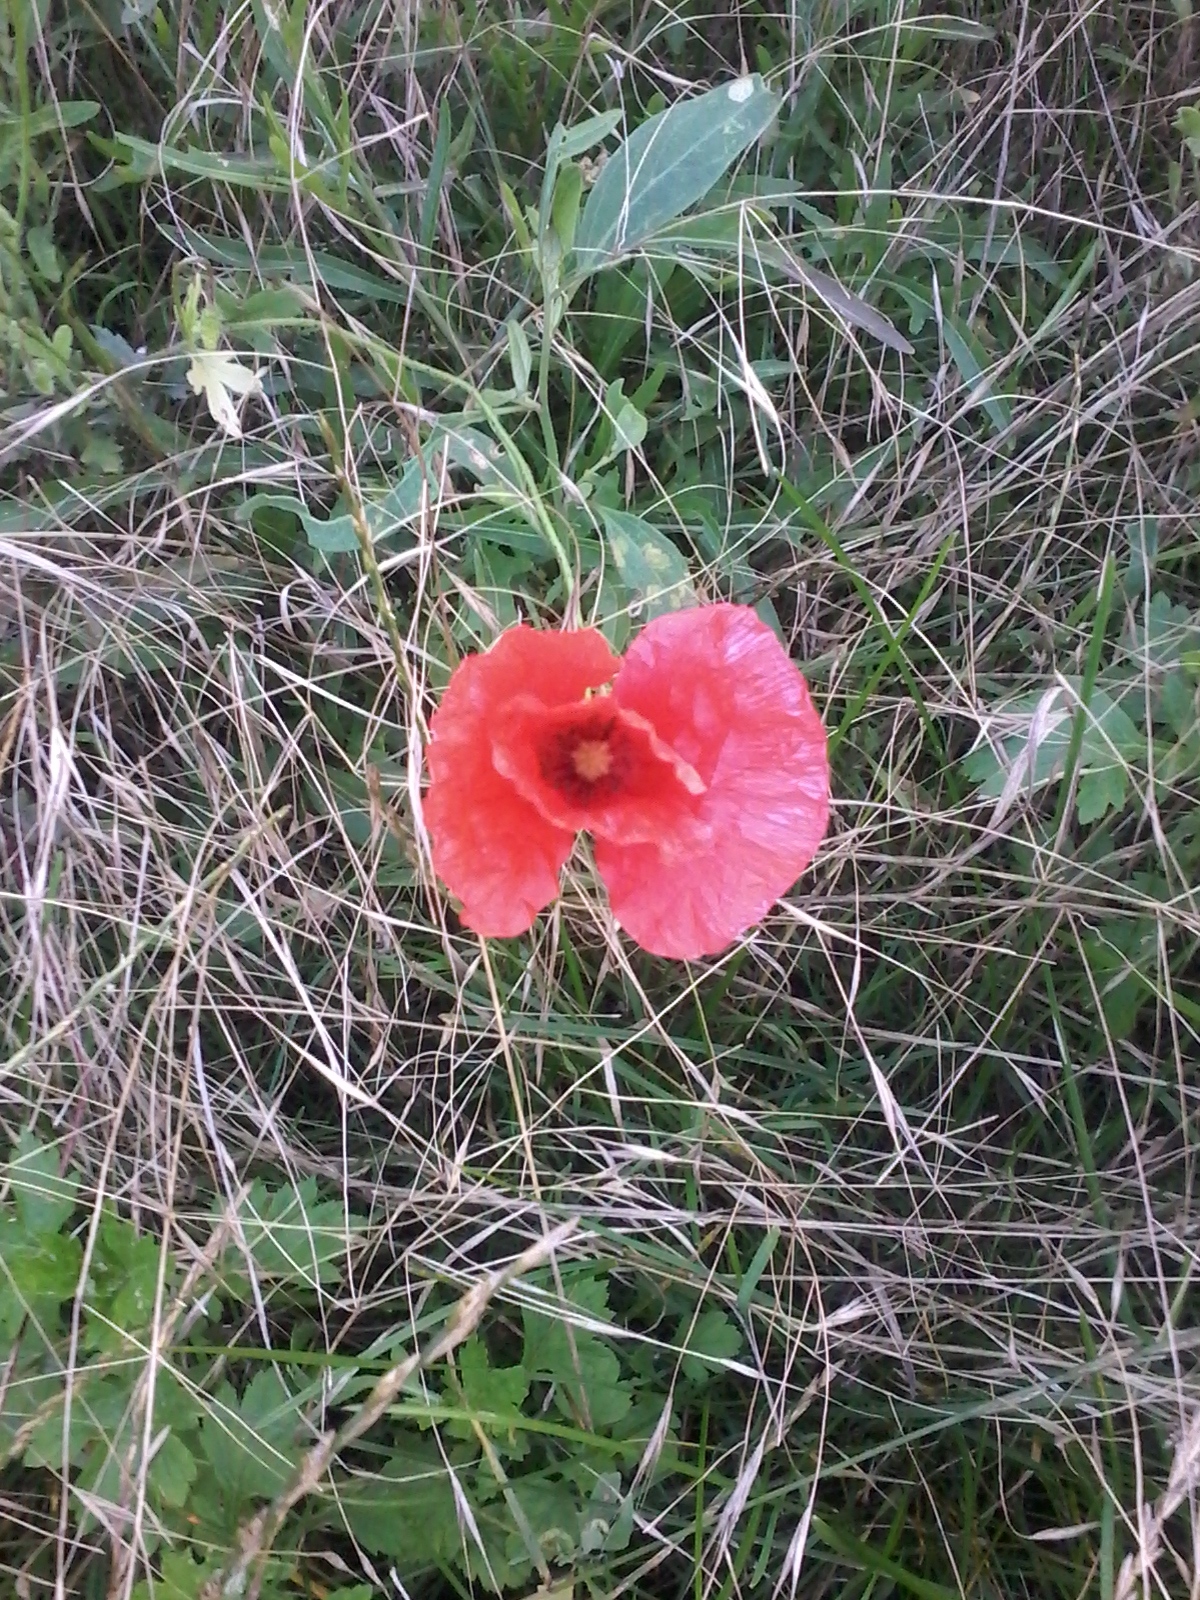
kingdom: Plantae
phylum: Tracheophyta
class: Magnoliopsida
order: Ranunculales
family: Papaveraceae
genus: Papaver
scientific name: Papaver rhoeas
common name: Corn poppy
